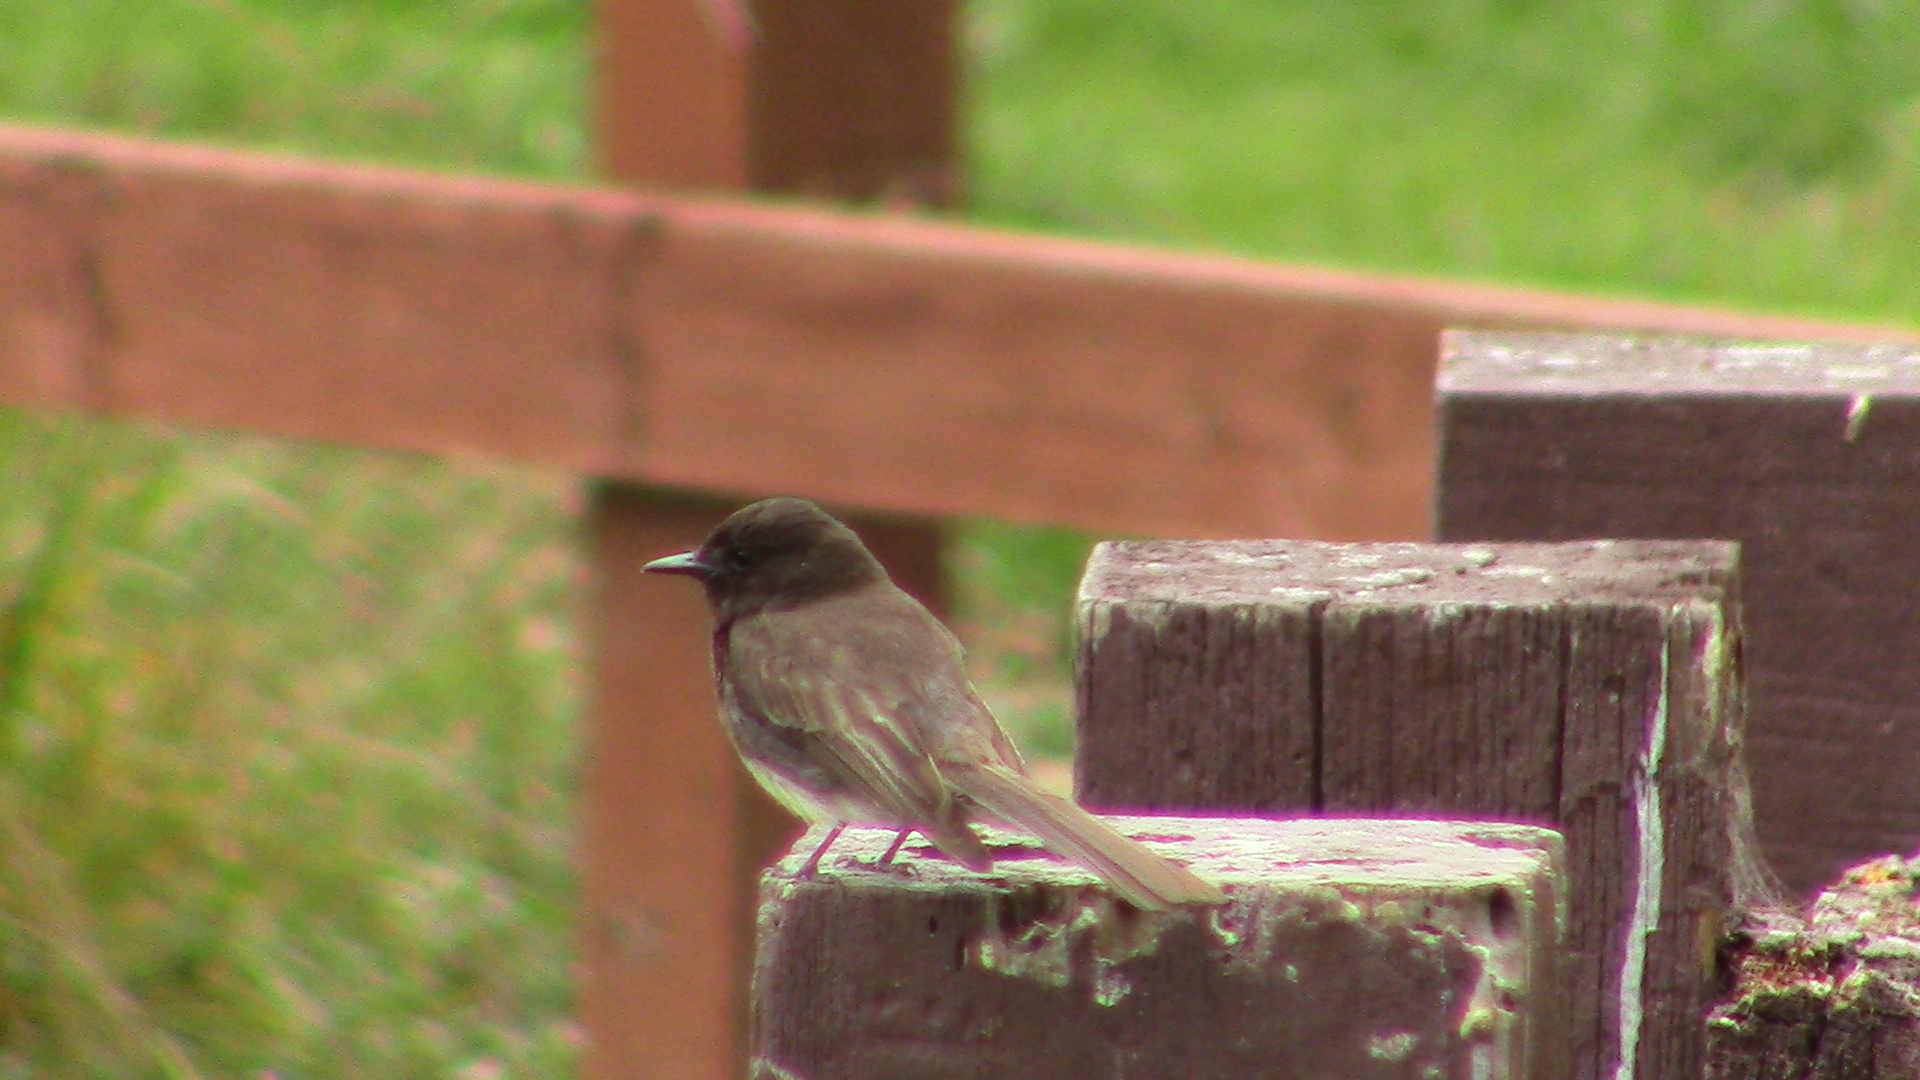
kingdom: Animalia
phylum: Chordata
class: Aves
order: Passeriformes
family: Tyrannidae
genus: Sayornis
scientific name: Sayornis nigricans
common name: Black phoebe
